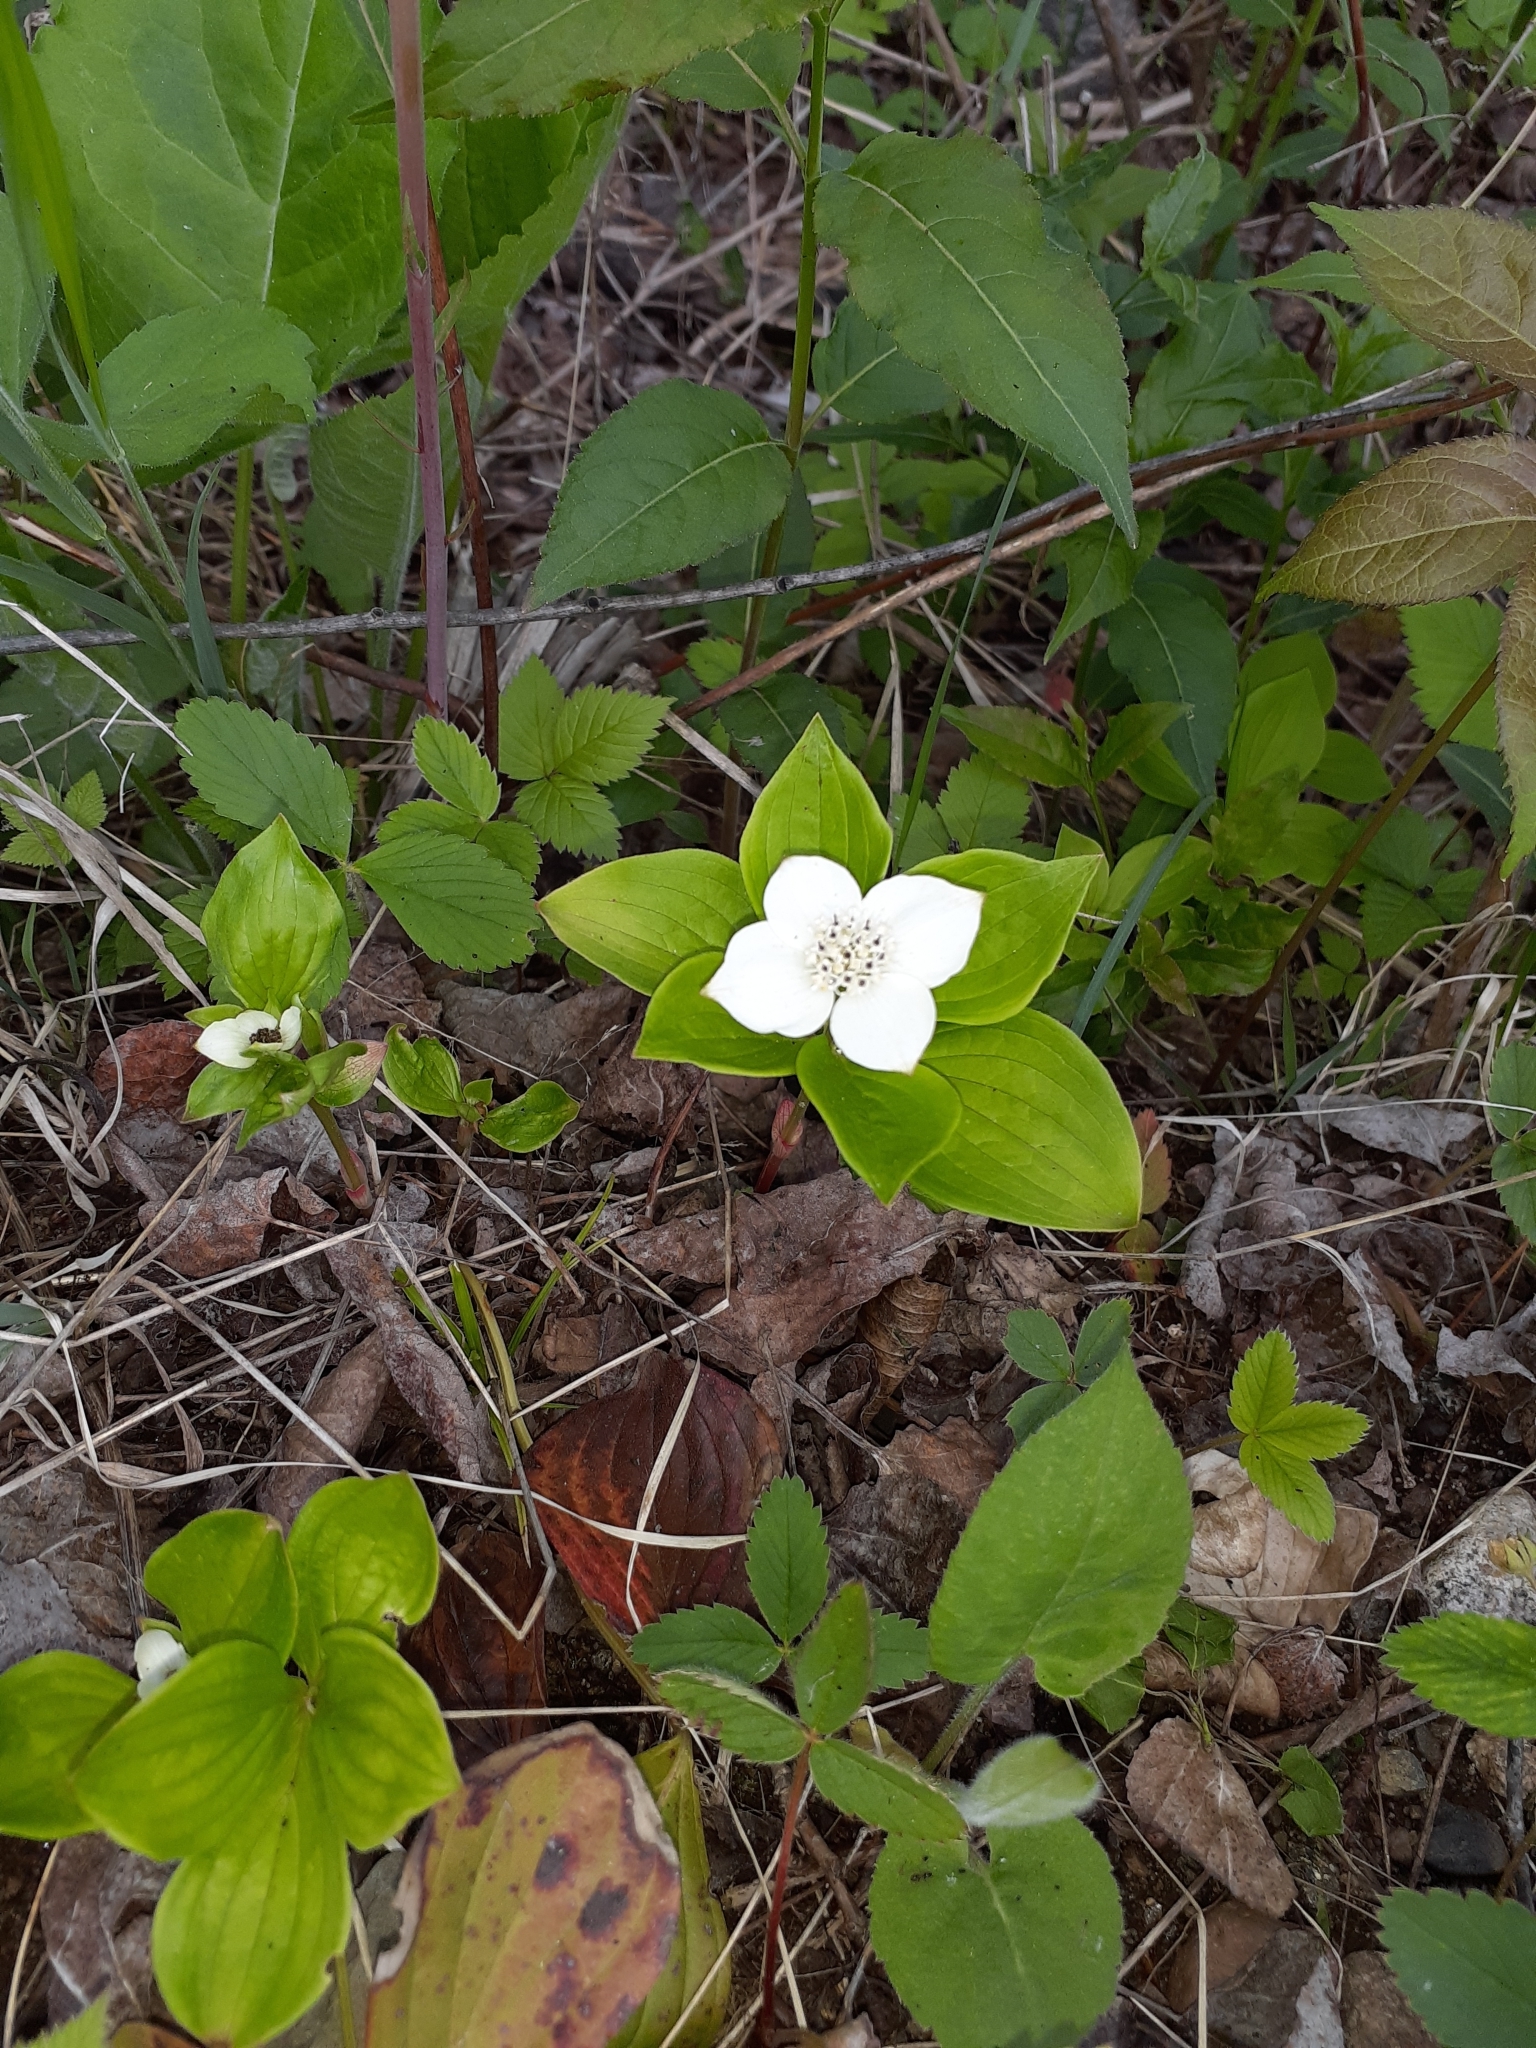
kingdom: Plantae
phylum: Tracheophyta
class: Magnoliopsida
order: Cornales
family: Cornaceae
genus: Cornus
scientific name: Cornus canadensis
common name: Creeping dogwood
